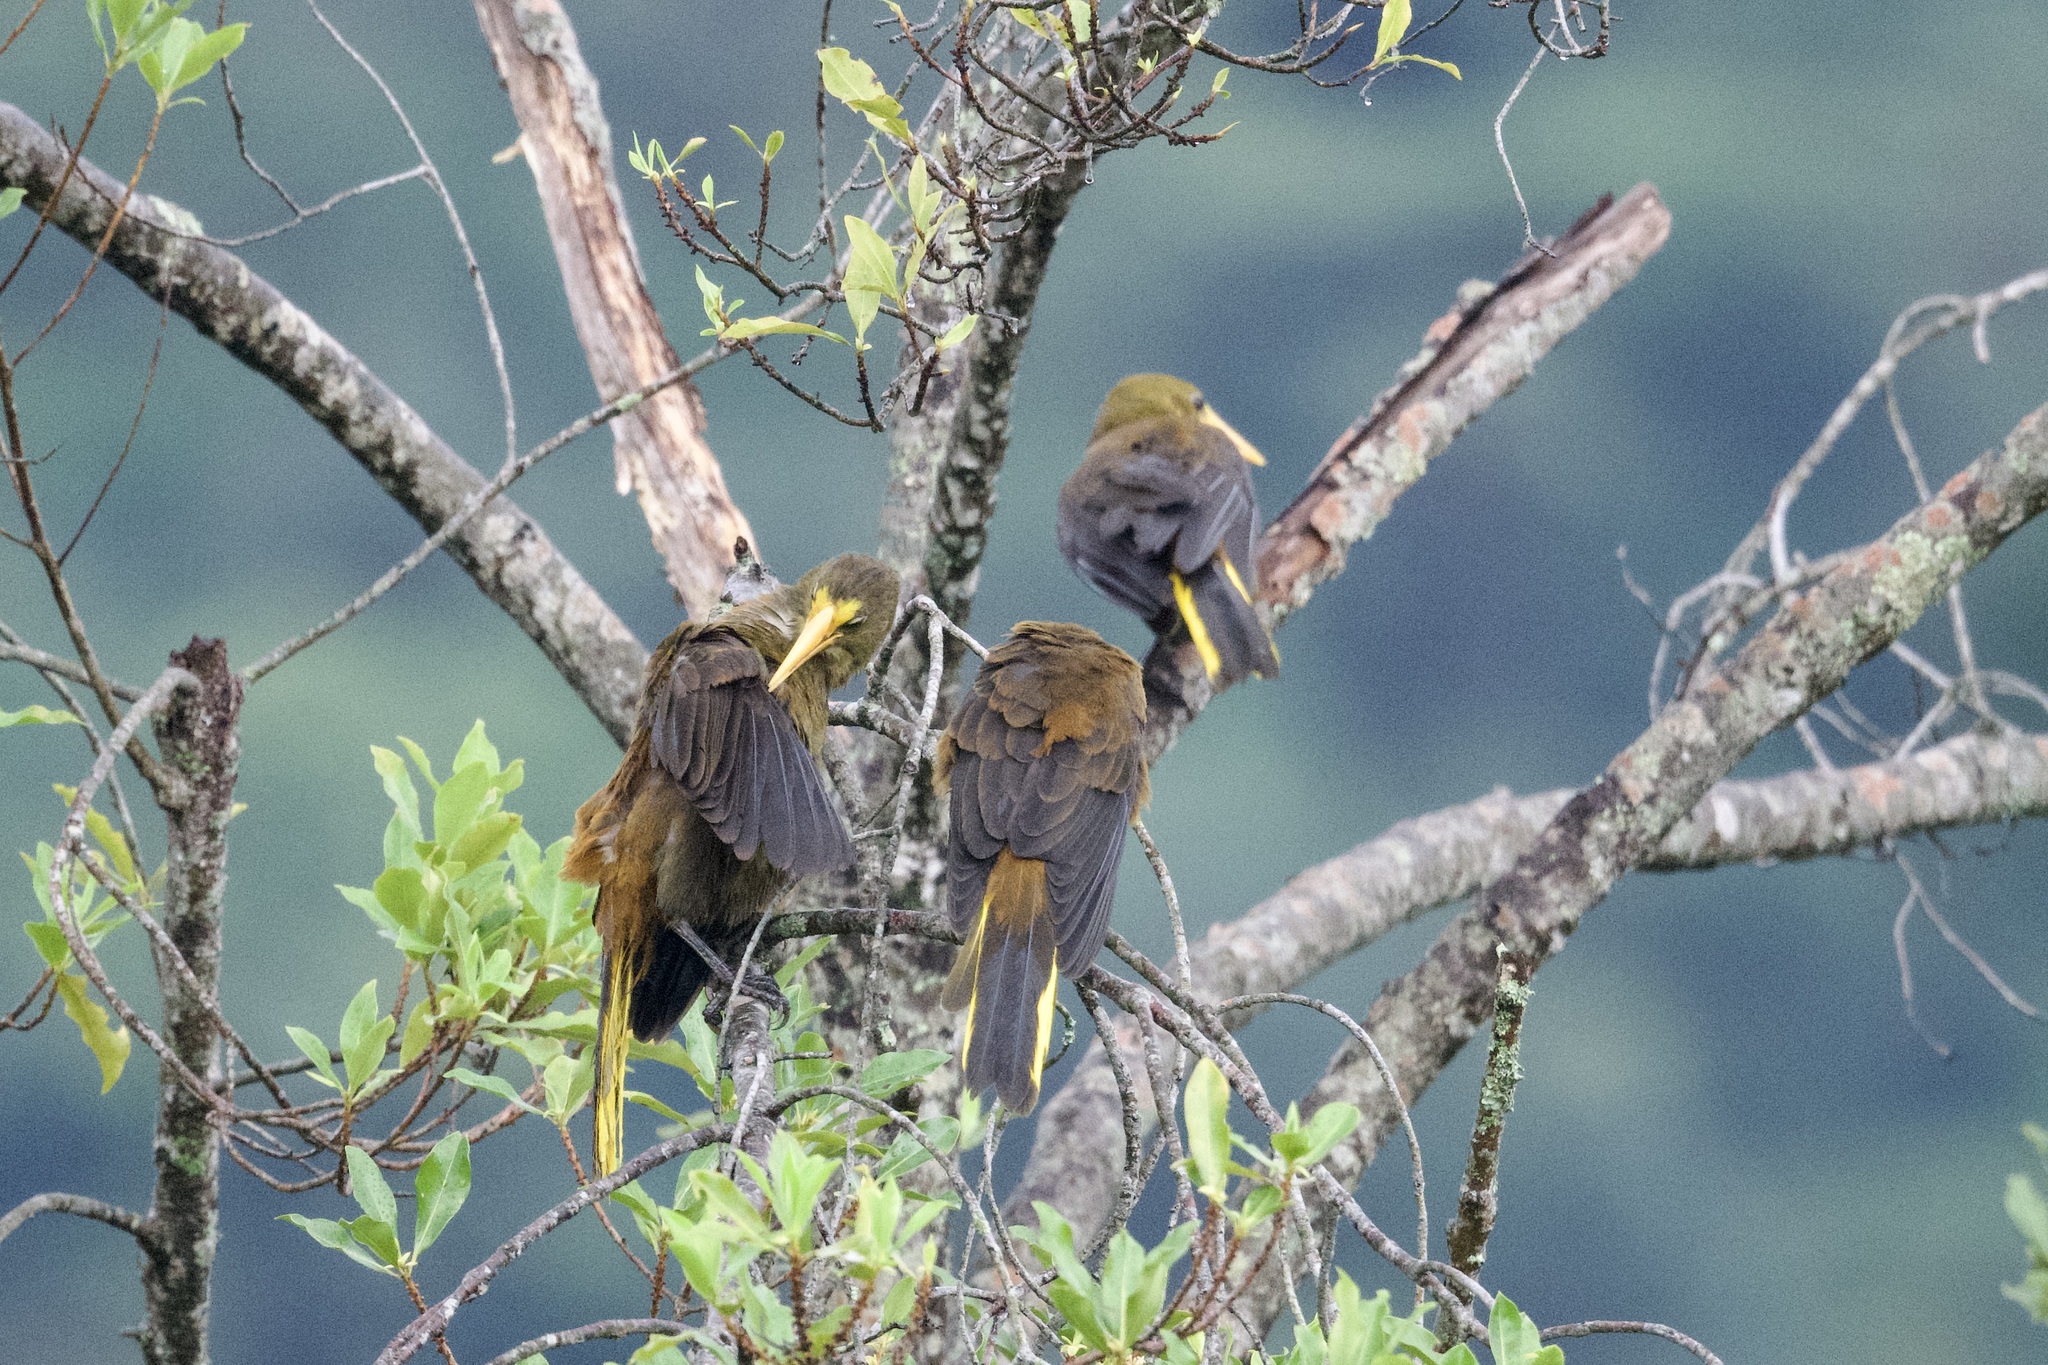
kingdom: Animalia
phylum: Chordata
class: Aves
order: Passeriformes
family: Icteridae
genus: Psarocolius
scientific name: Psarocolius angustifrons
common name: Russet-backed oropendola
